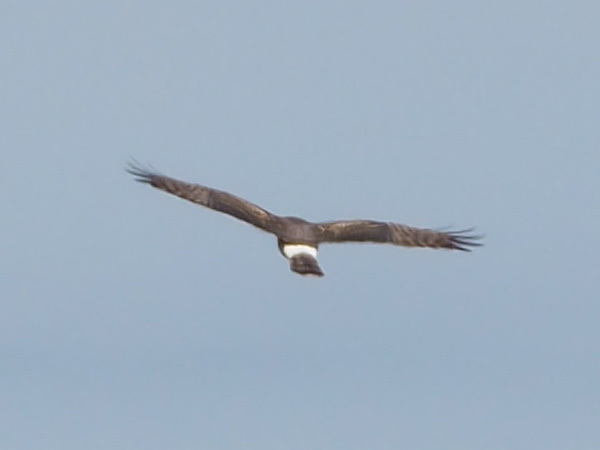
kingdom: Animalia
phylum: Chordata
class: Aves
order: Accipitriformes
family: Accipitridae
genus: Circus
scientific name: Circus cyaneus
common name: Hen harrier
